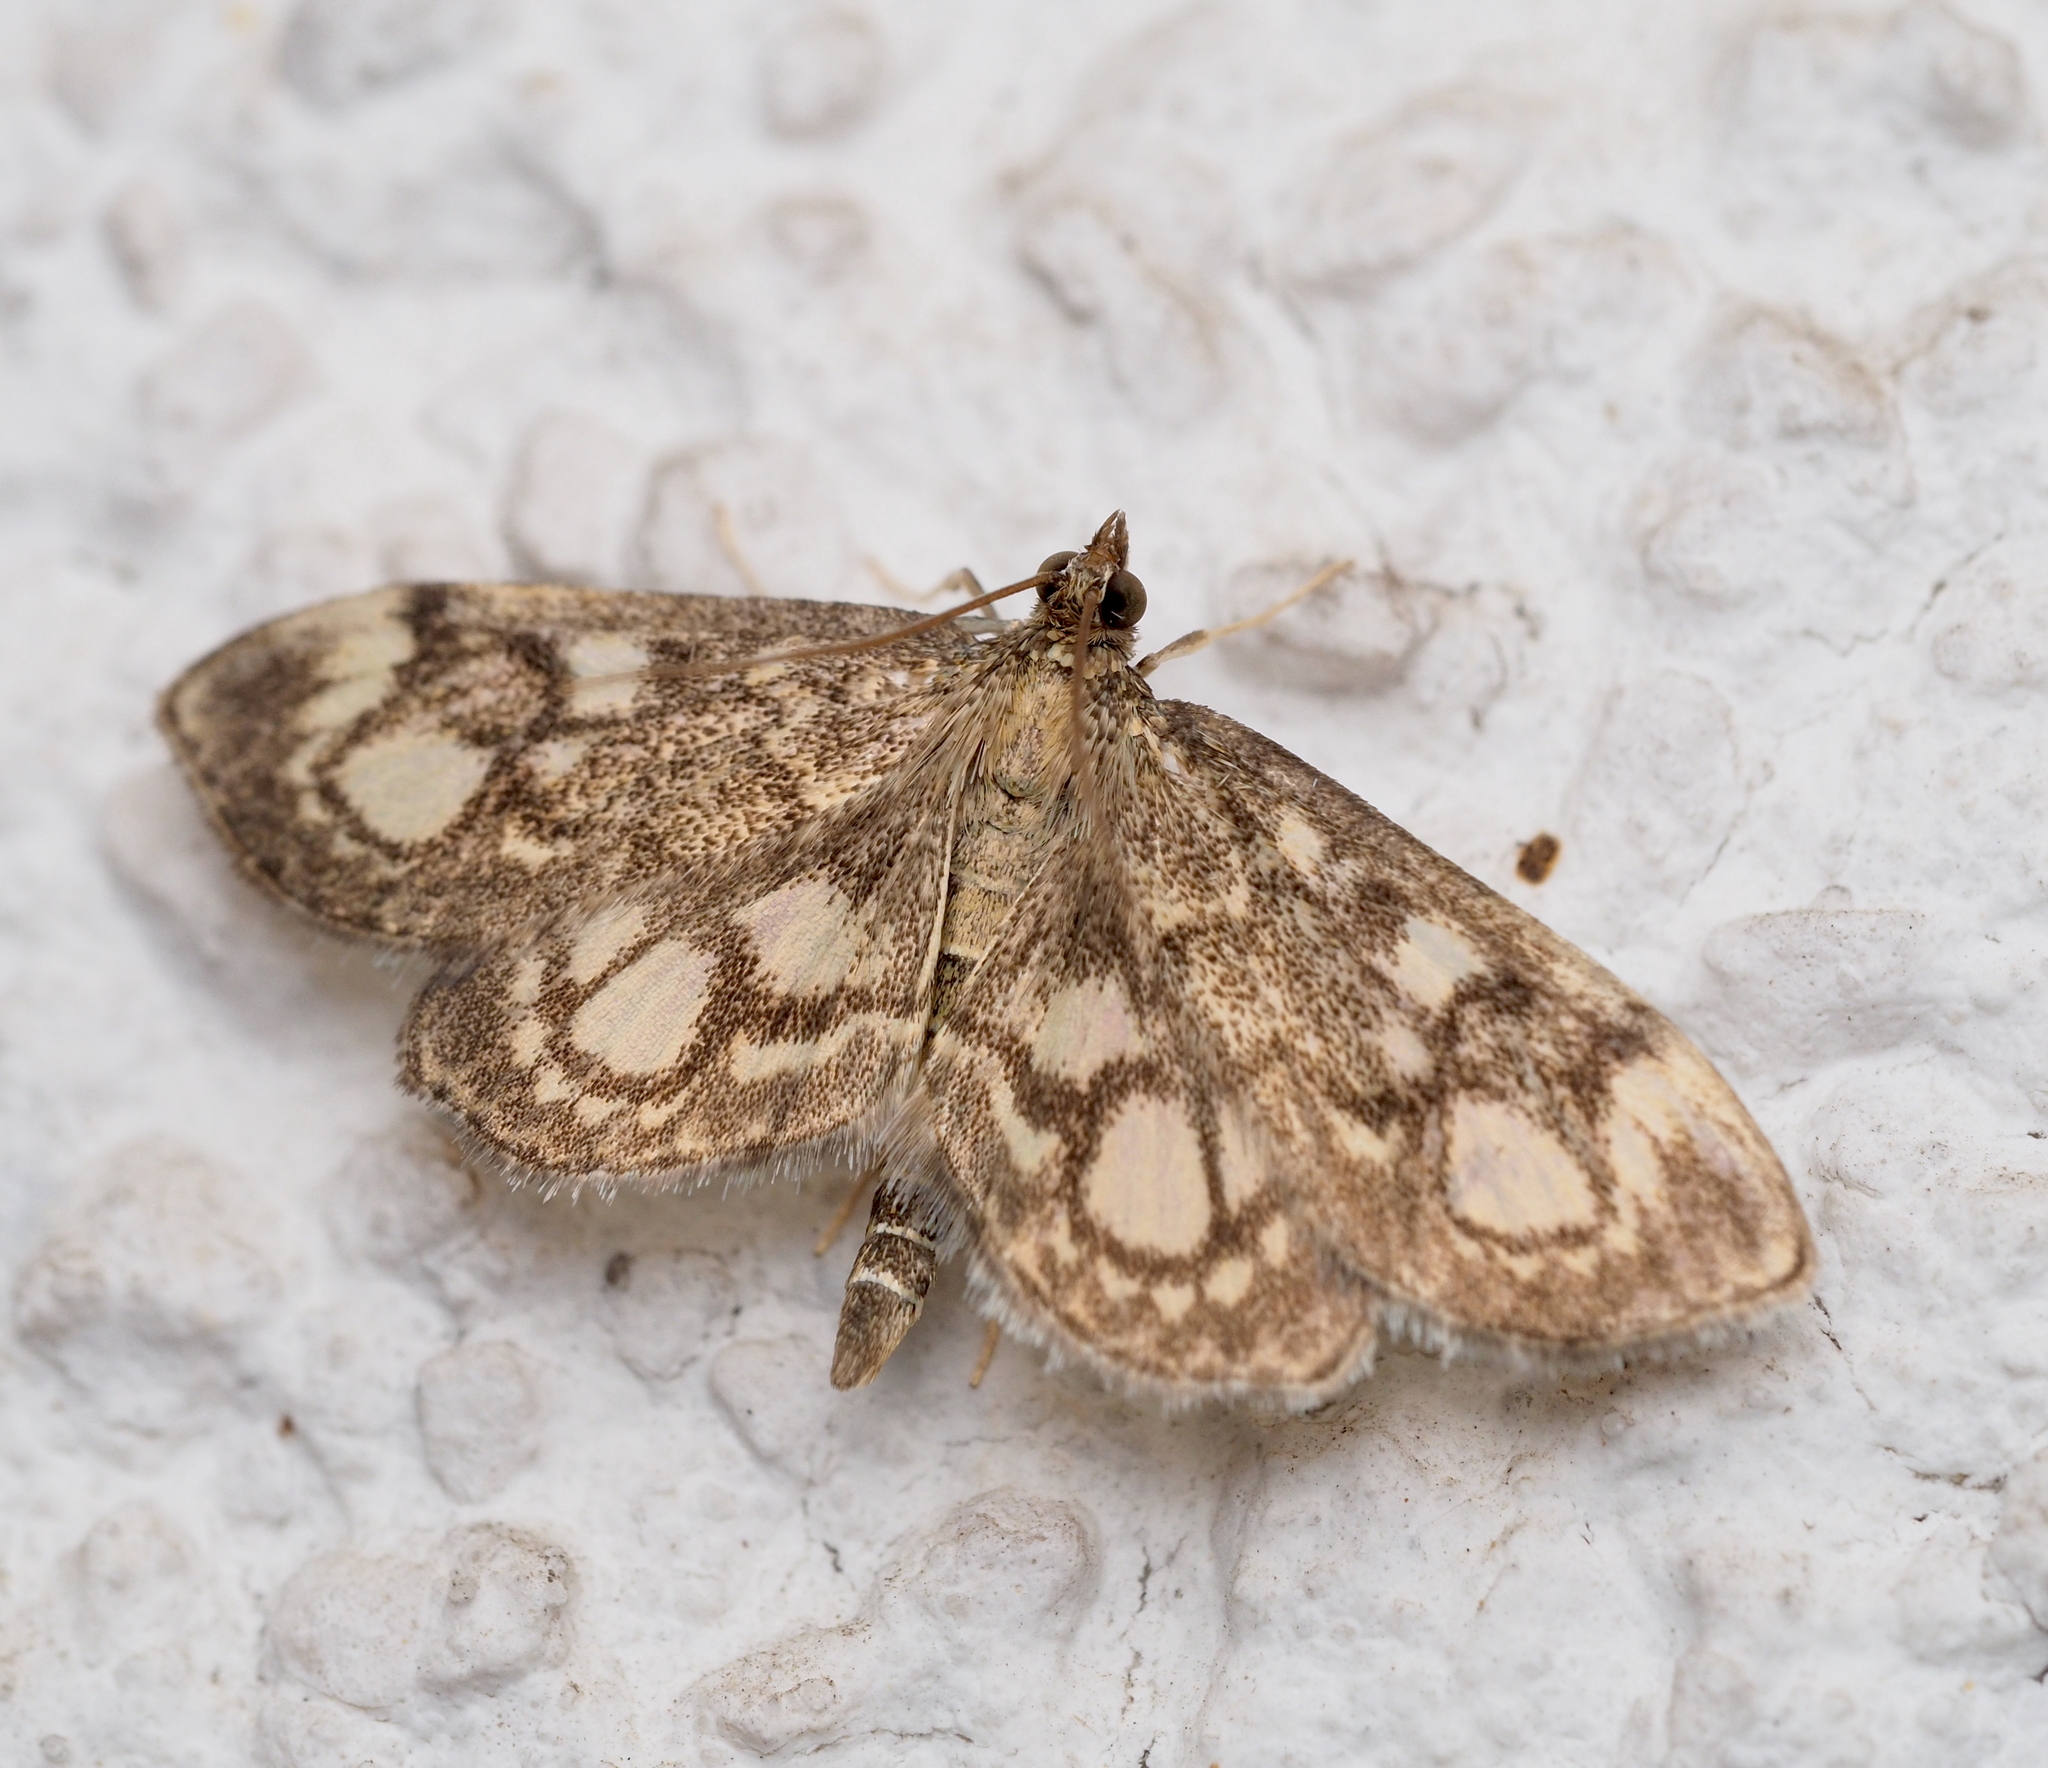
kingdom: Animalia
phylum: Arthropoda
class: Insecta
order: Lepidoptera
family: Crambidae
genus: Anania
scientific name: Anania coronata
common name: Elder pearl
